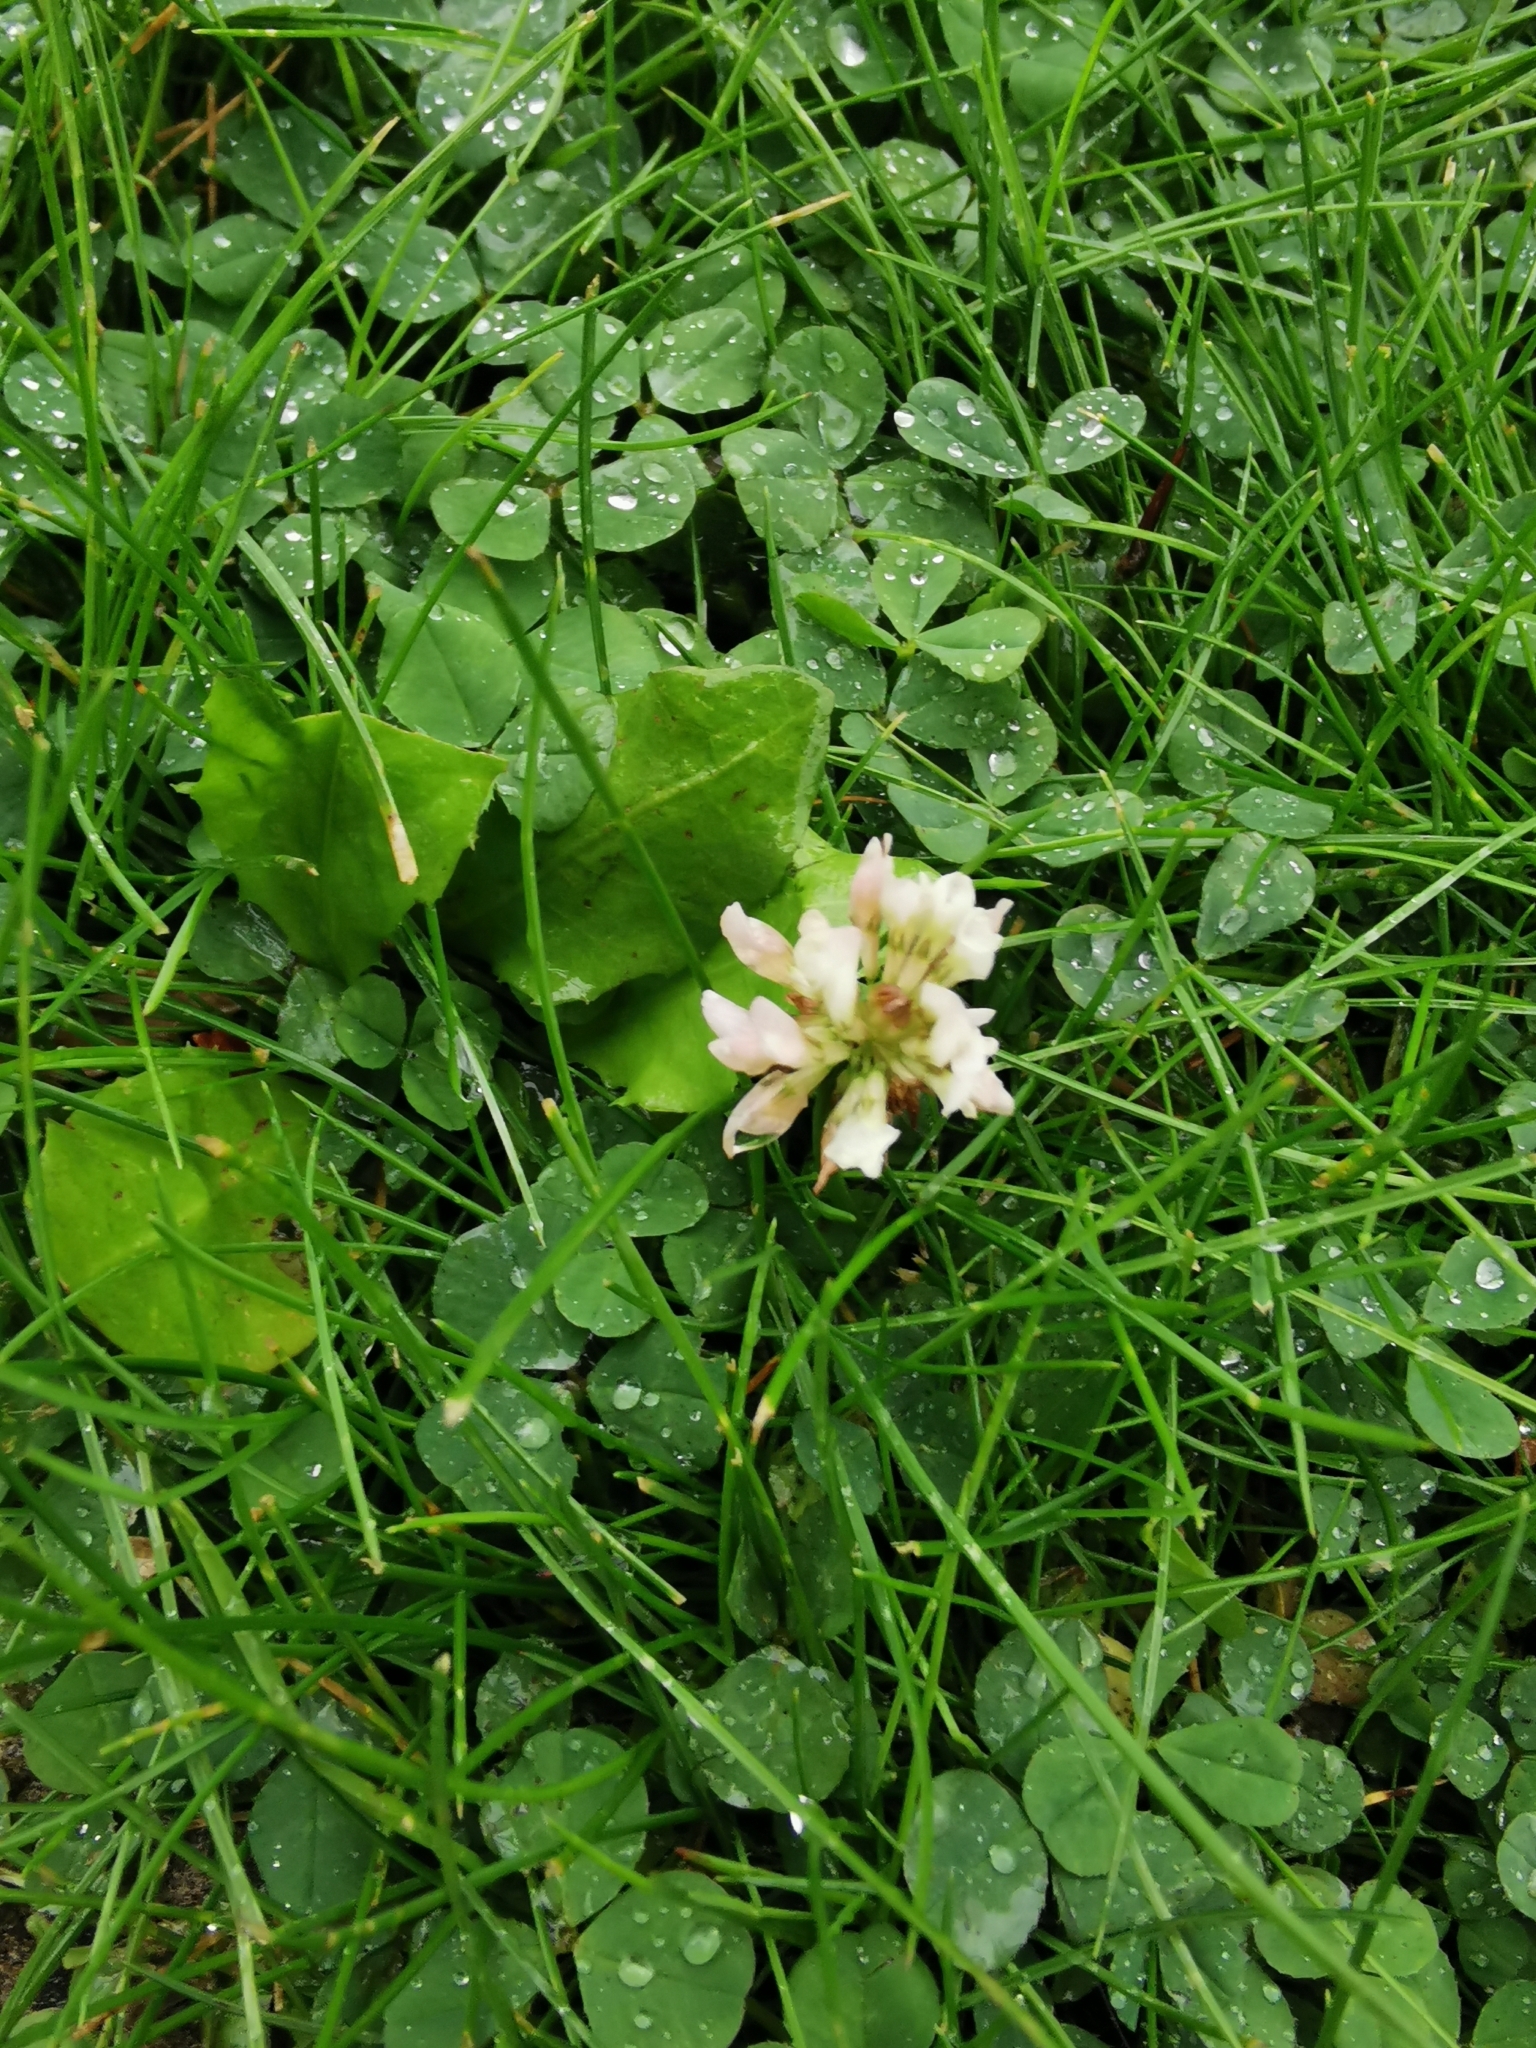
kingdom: Plantae
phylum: Tracheophyta
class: Magnoliopsida
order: Fabales
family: Fabaceae
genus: Trifolium
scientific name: Trifolium repens
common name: White clover
